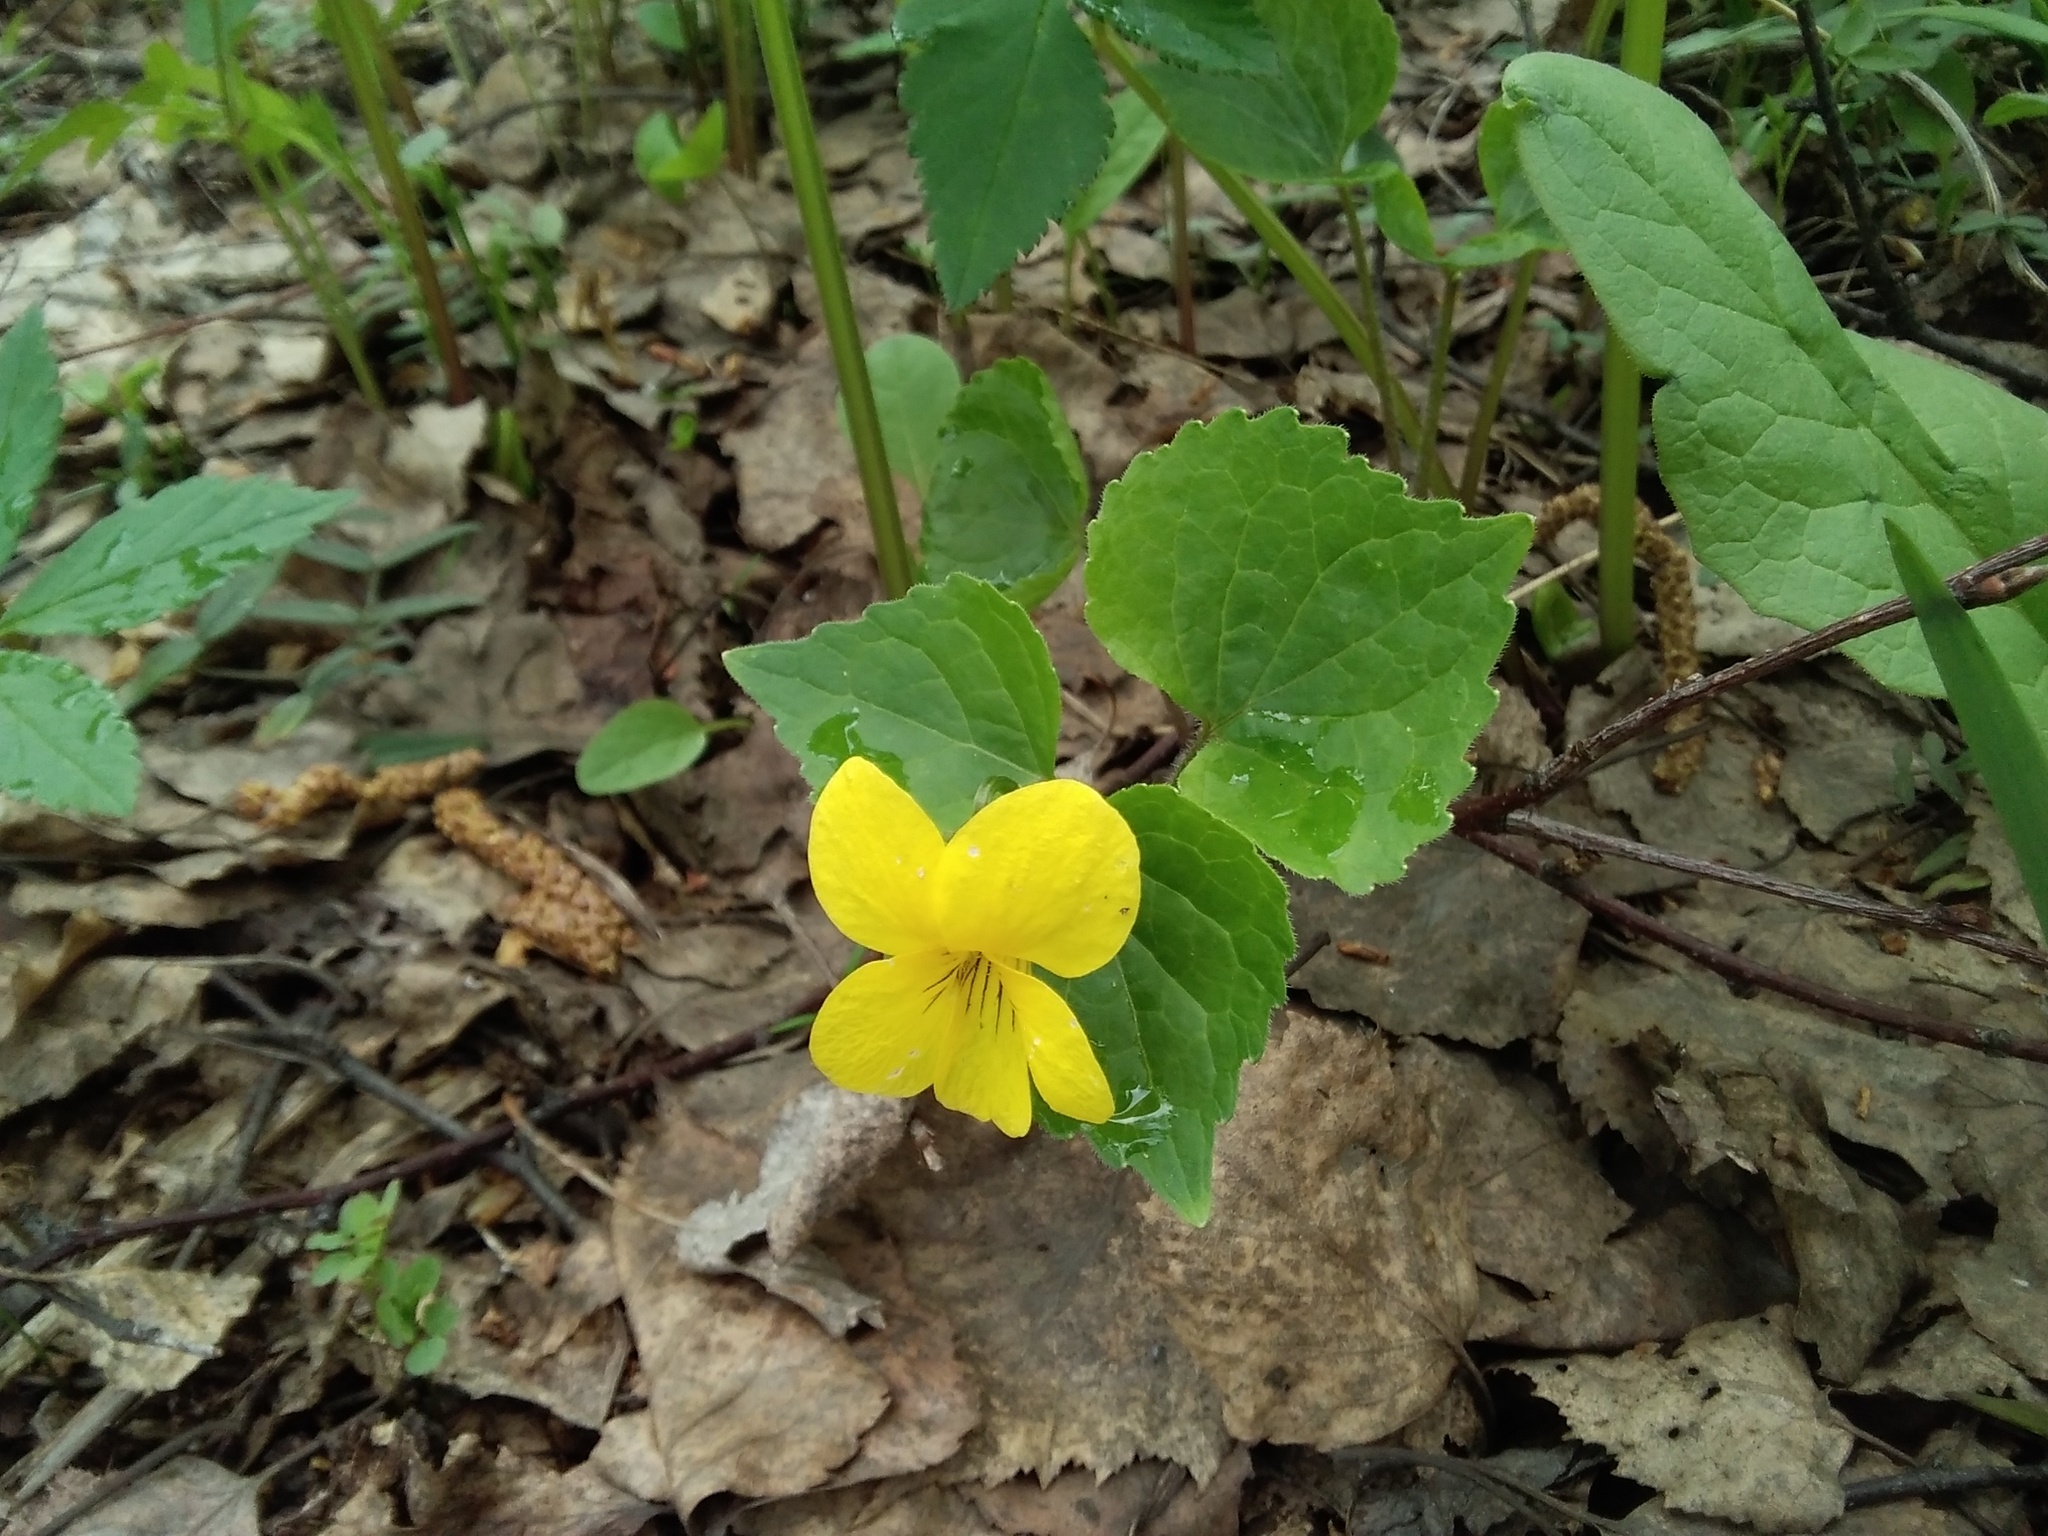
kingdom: Plantae
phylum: Tracheophyta
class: Magnoliopsida
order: Malpighiales
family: Violaceae
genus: Viola
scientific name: Viola uniflora
